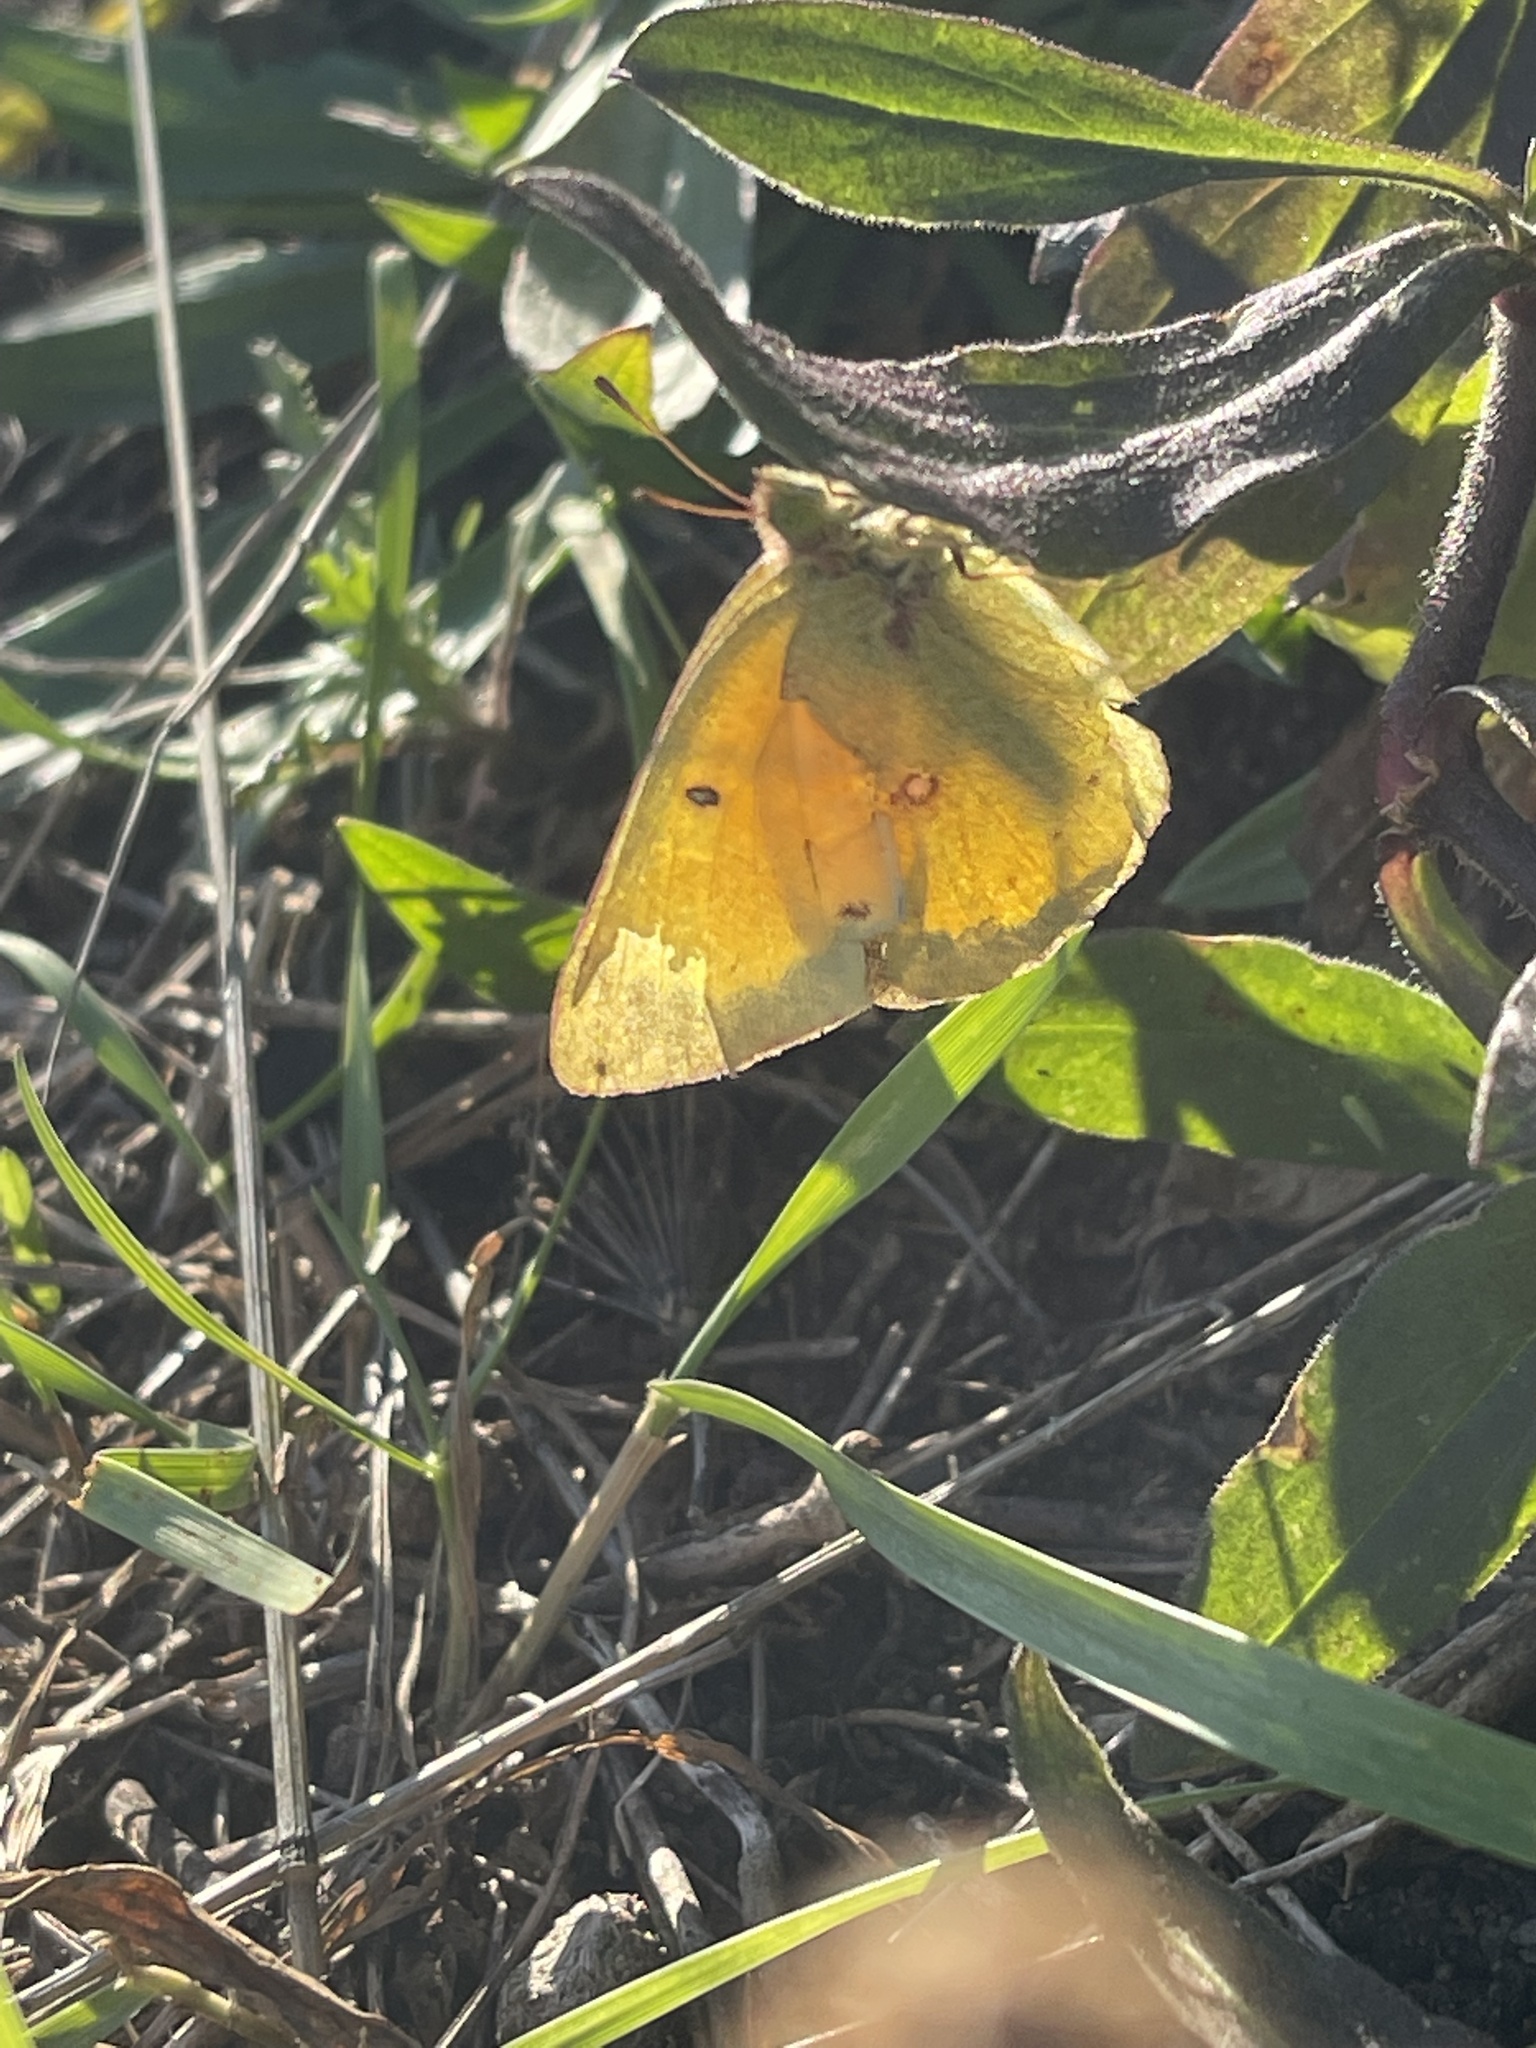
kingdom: Animalia
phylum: Arthropoda
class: Insecta
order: Lepidoptera
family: Pieridae
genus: Colias
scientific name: Colias eurytheme
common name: Alfalfa butterfly
